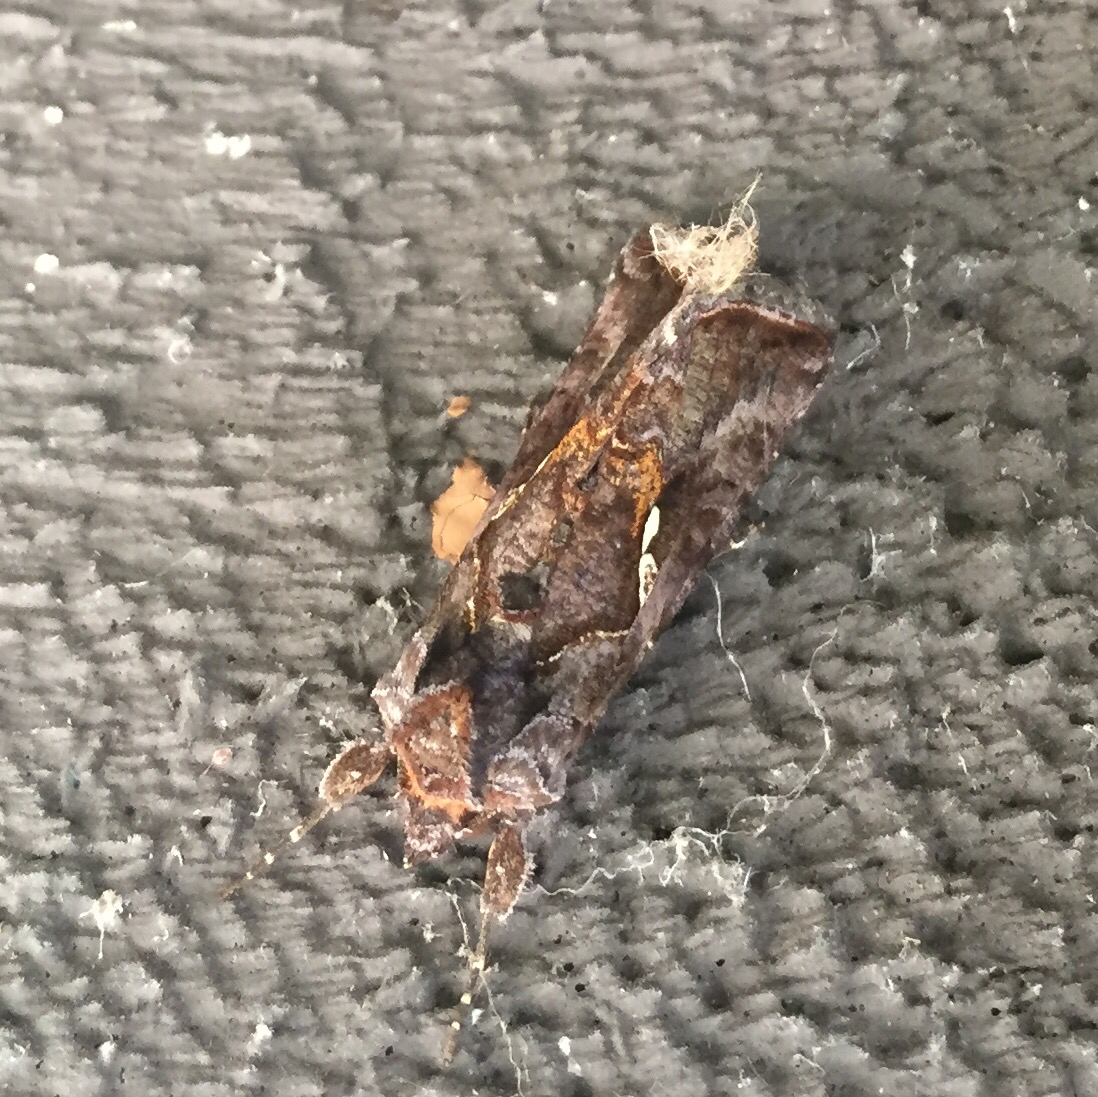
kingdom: Animalia
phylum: Arthropoda
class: Insecta
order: Lepidoptera
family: Noctuidae
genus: Autographa
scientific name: Autographa precationis
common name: Common looper moth
